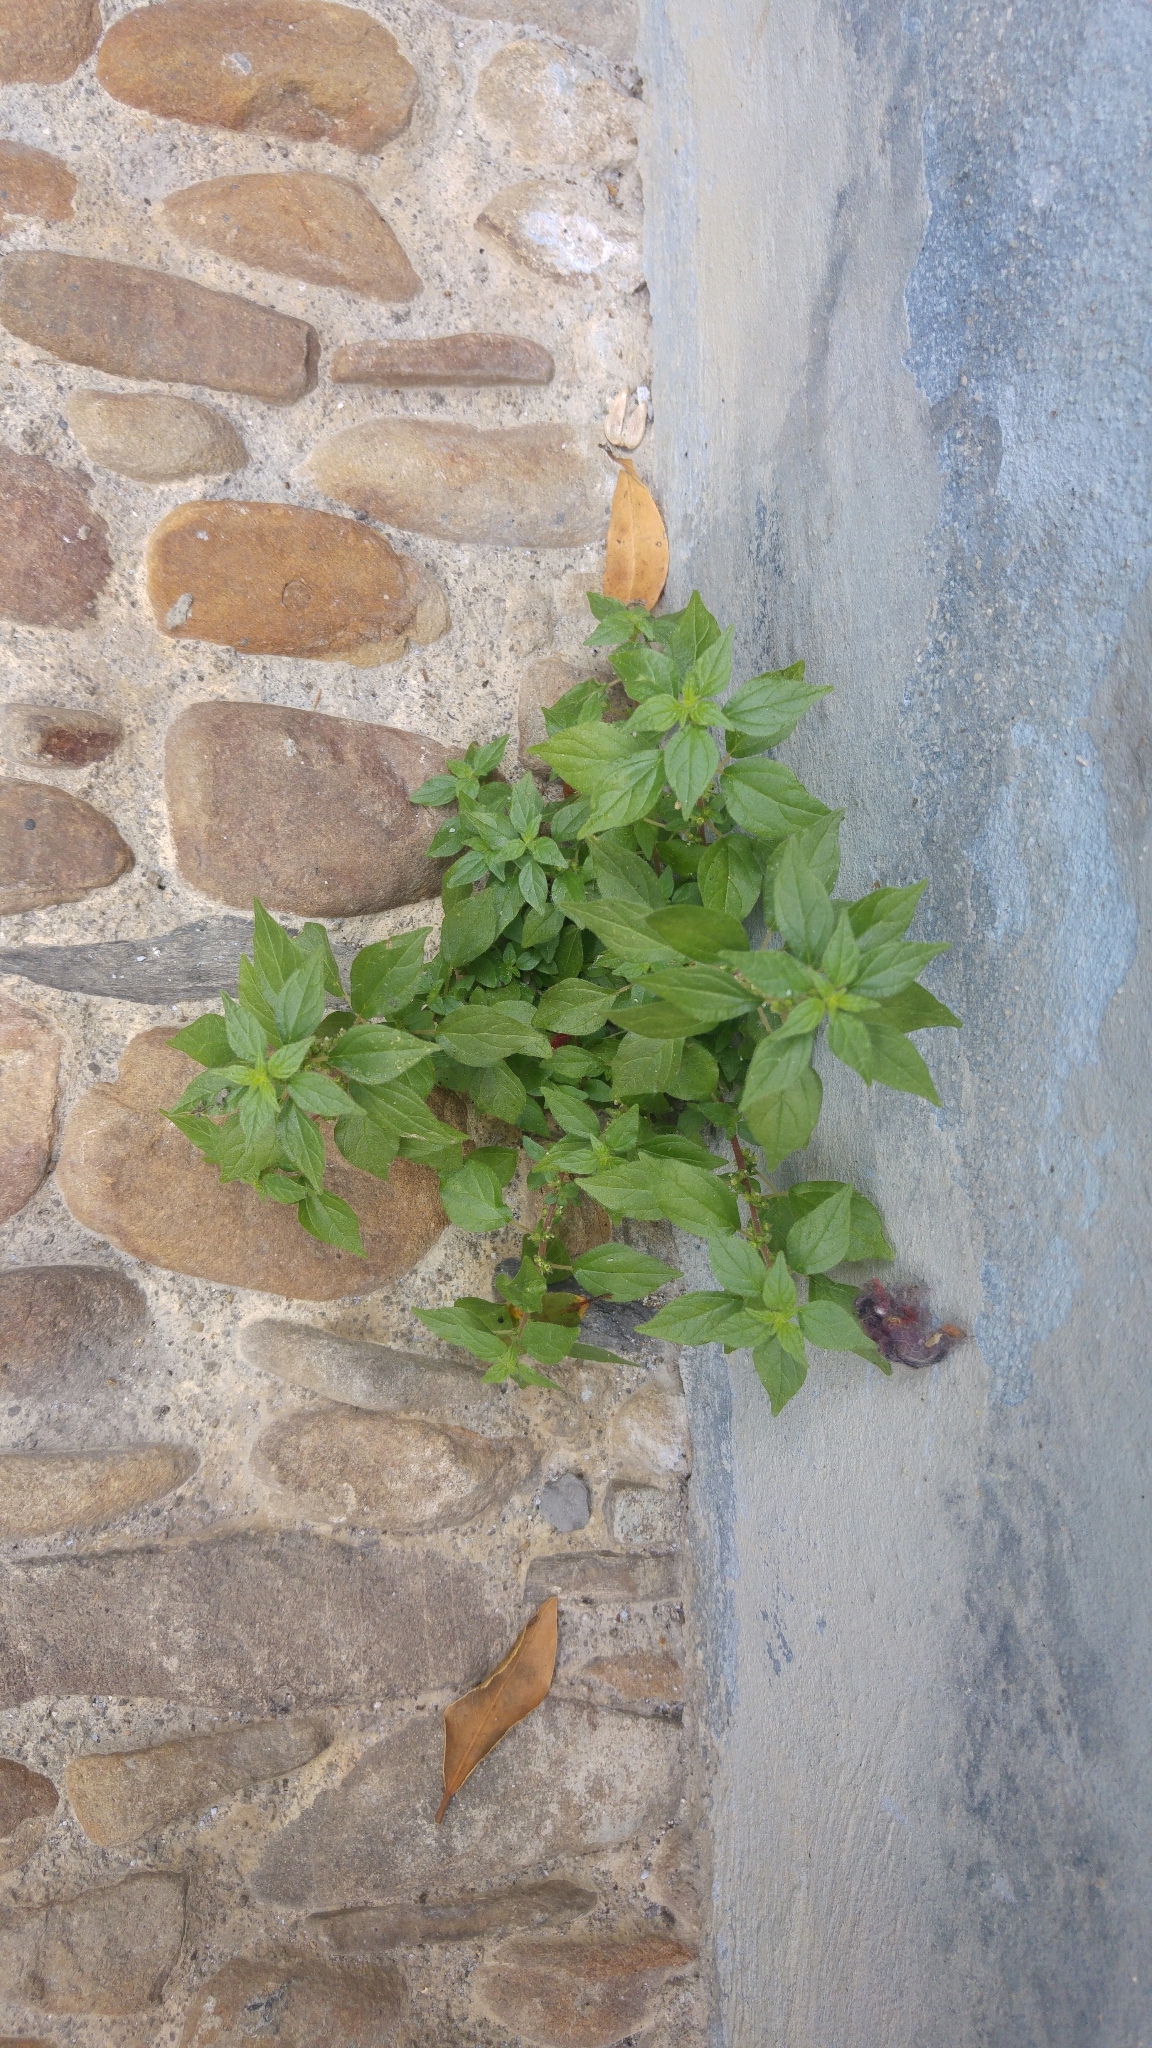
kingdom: Plantae
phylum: Tracheophyta
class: Magnoliopsida
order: Rosales
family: Urticaceae
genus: Parietaria
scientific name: Parietaria judaica
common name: Pellitory-of-the-wall
